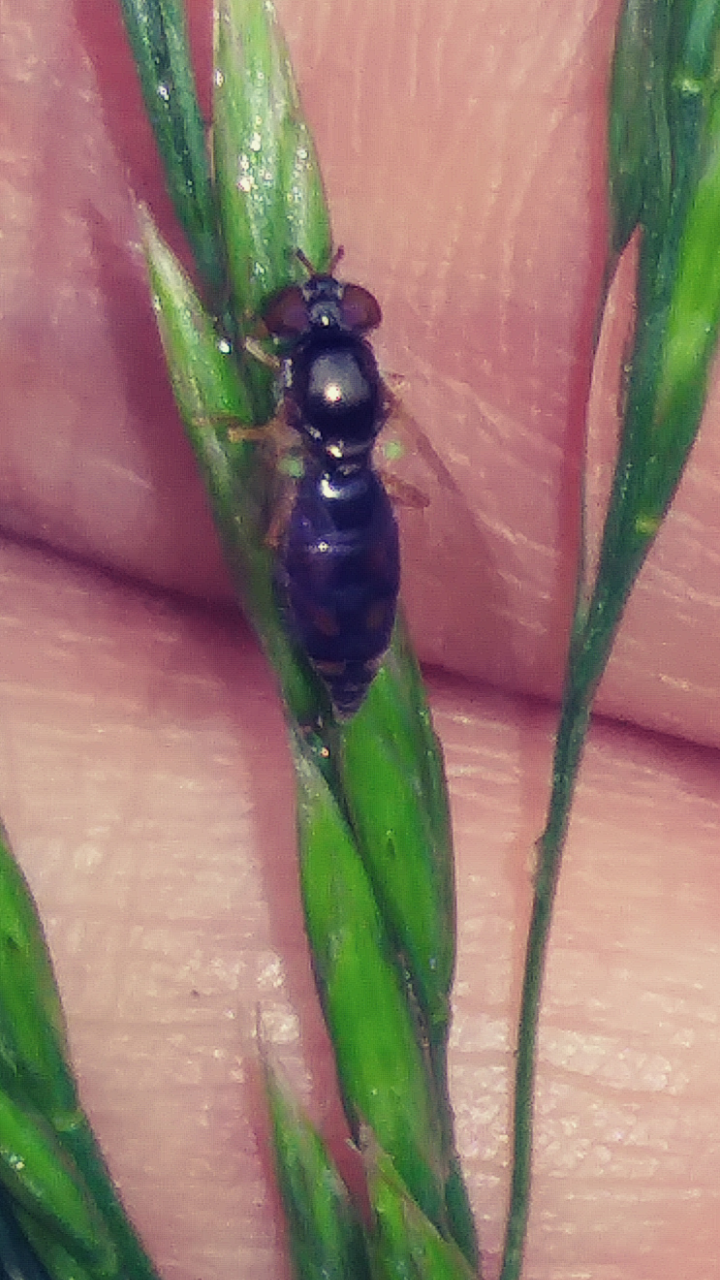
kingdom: Animalia
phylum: Arthropoda
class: Insecta
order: Diptera
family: Syrphidae
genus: Melanostoma
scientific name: Melanostoma mellina
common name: Hover fly
